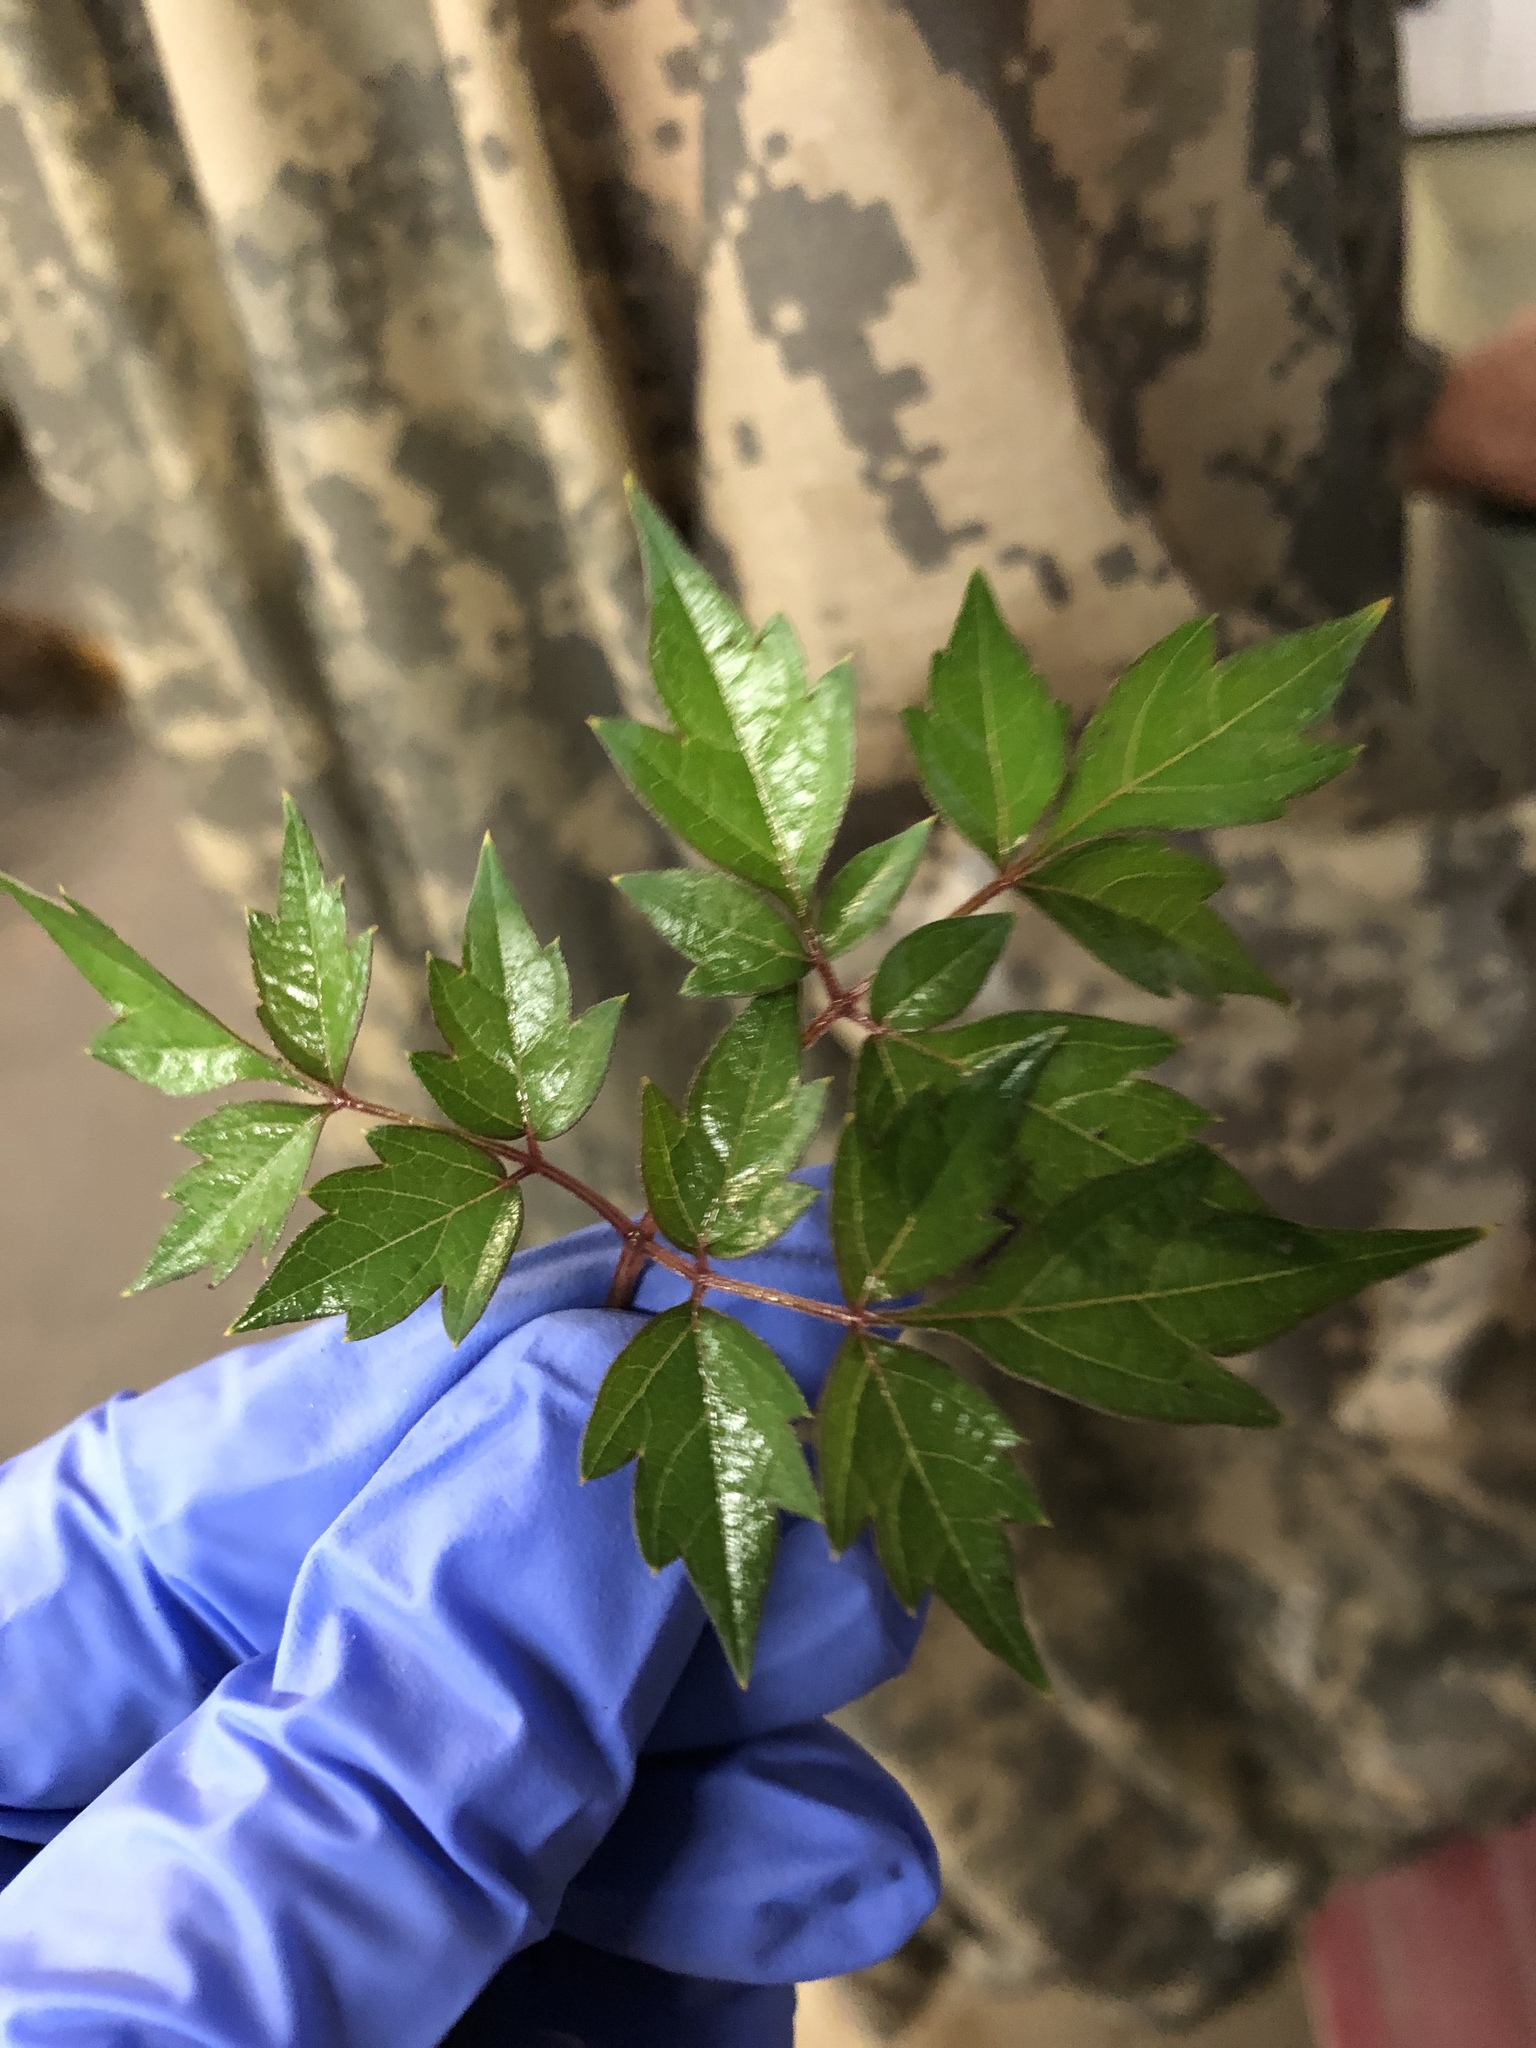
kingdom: Plantae
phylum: Tracheophyta
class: Magnoliopsida
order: Vitales
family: Vitaceae
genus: Nekemias
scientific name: Nekemias arborea
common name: Peppervine
